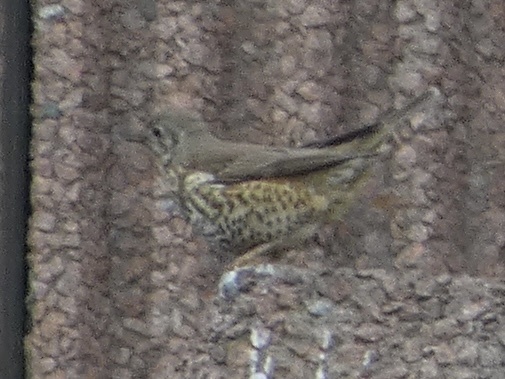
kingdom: Animalia
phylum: Chordata
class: Aves
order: Passeriformes
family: Turdidae
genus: Turdus
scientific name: Turdus viscivorus
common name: Mistle thrush
